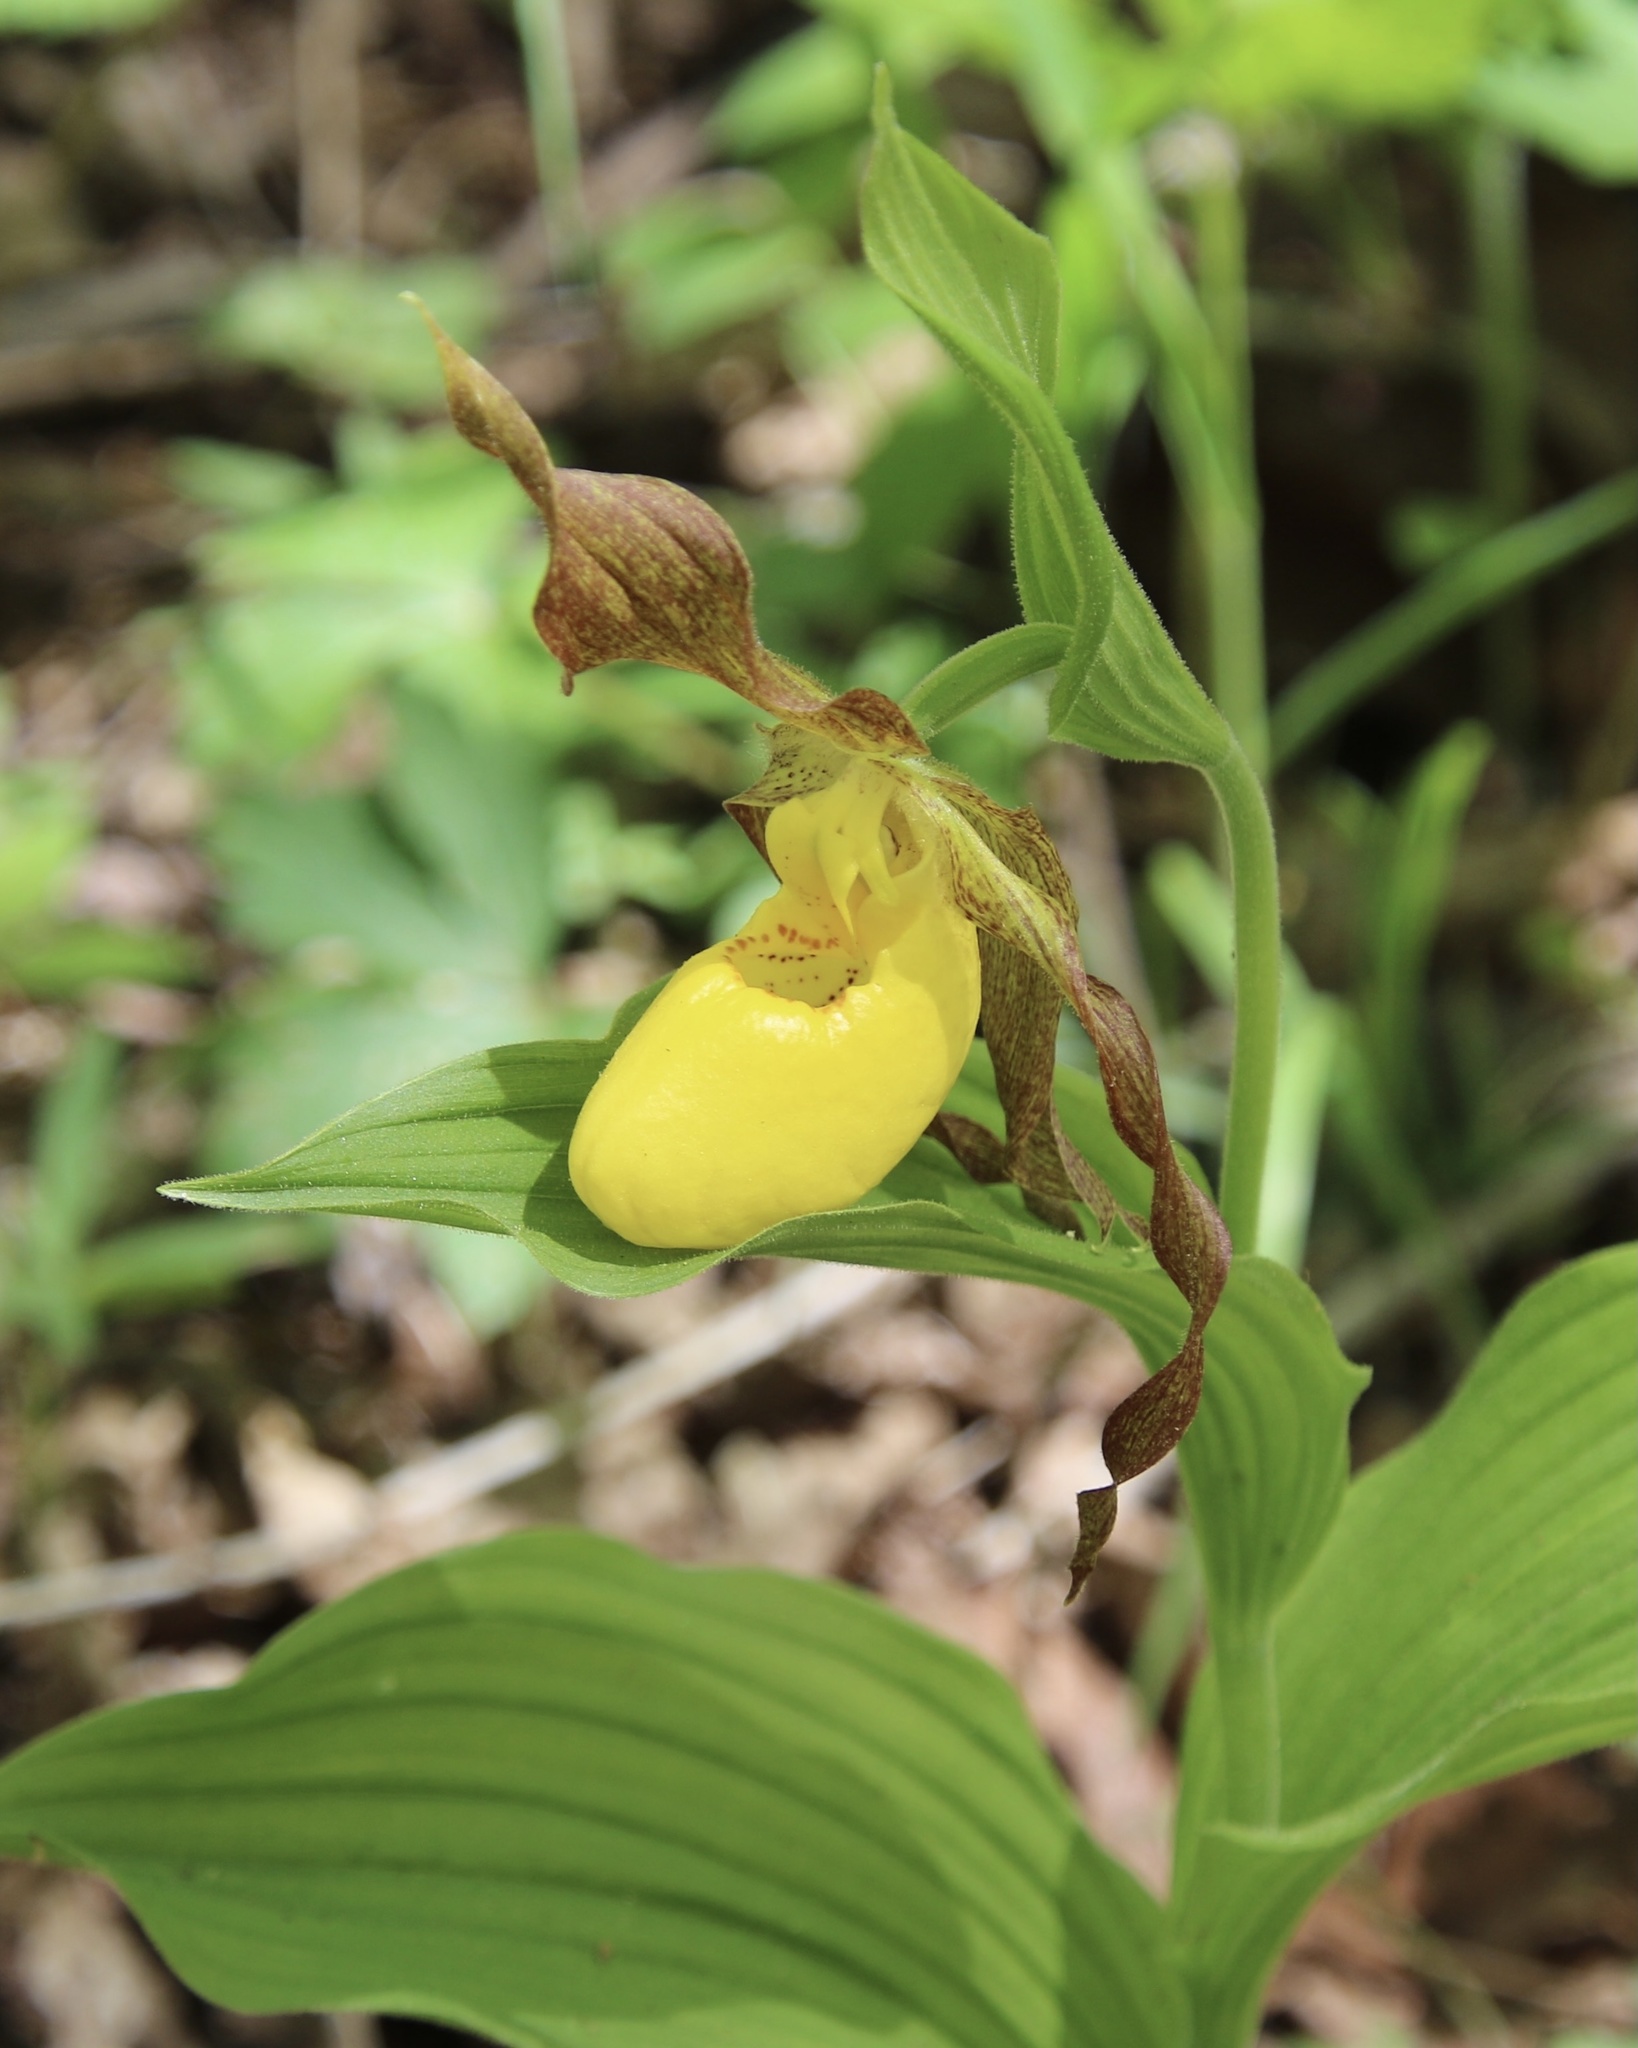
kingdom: Plantae
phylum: Tracheophyta
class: Liliopsida
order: Asparagales
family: Orchidaceae
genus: Cypripedium
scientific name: Cypripedium parviflorum
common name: American yellow lady's-slipper
